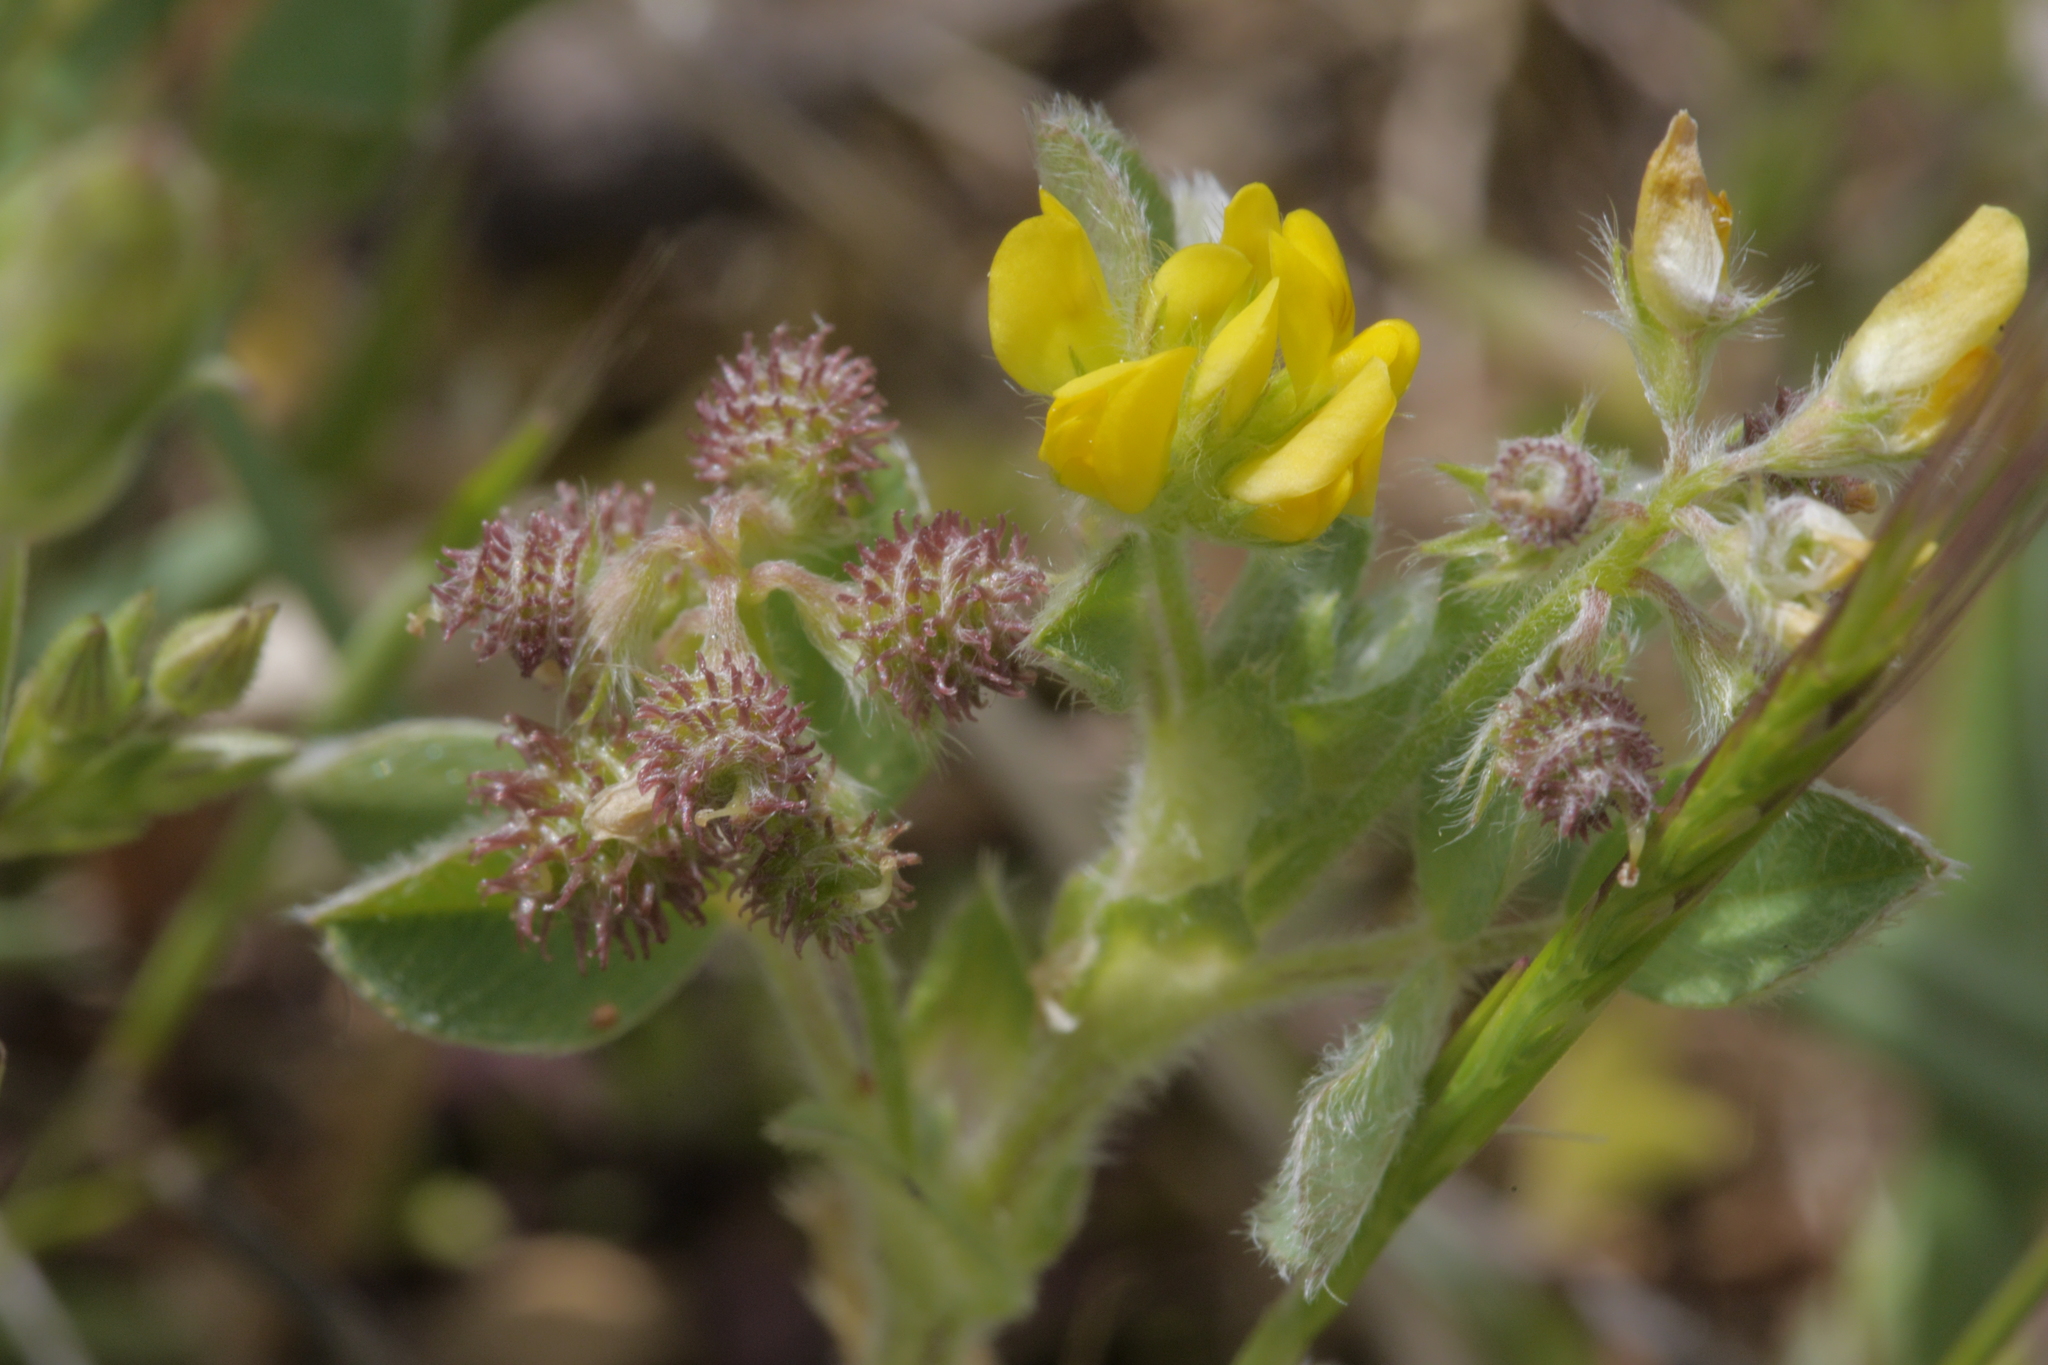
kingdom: Plantae
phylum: Tracheophyta
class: Magnoliopsida
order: Fabales
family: Fabaceae
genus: Medicago
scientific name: Medicago minima
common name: Little bur-clover
